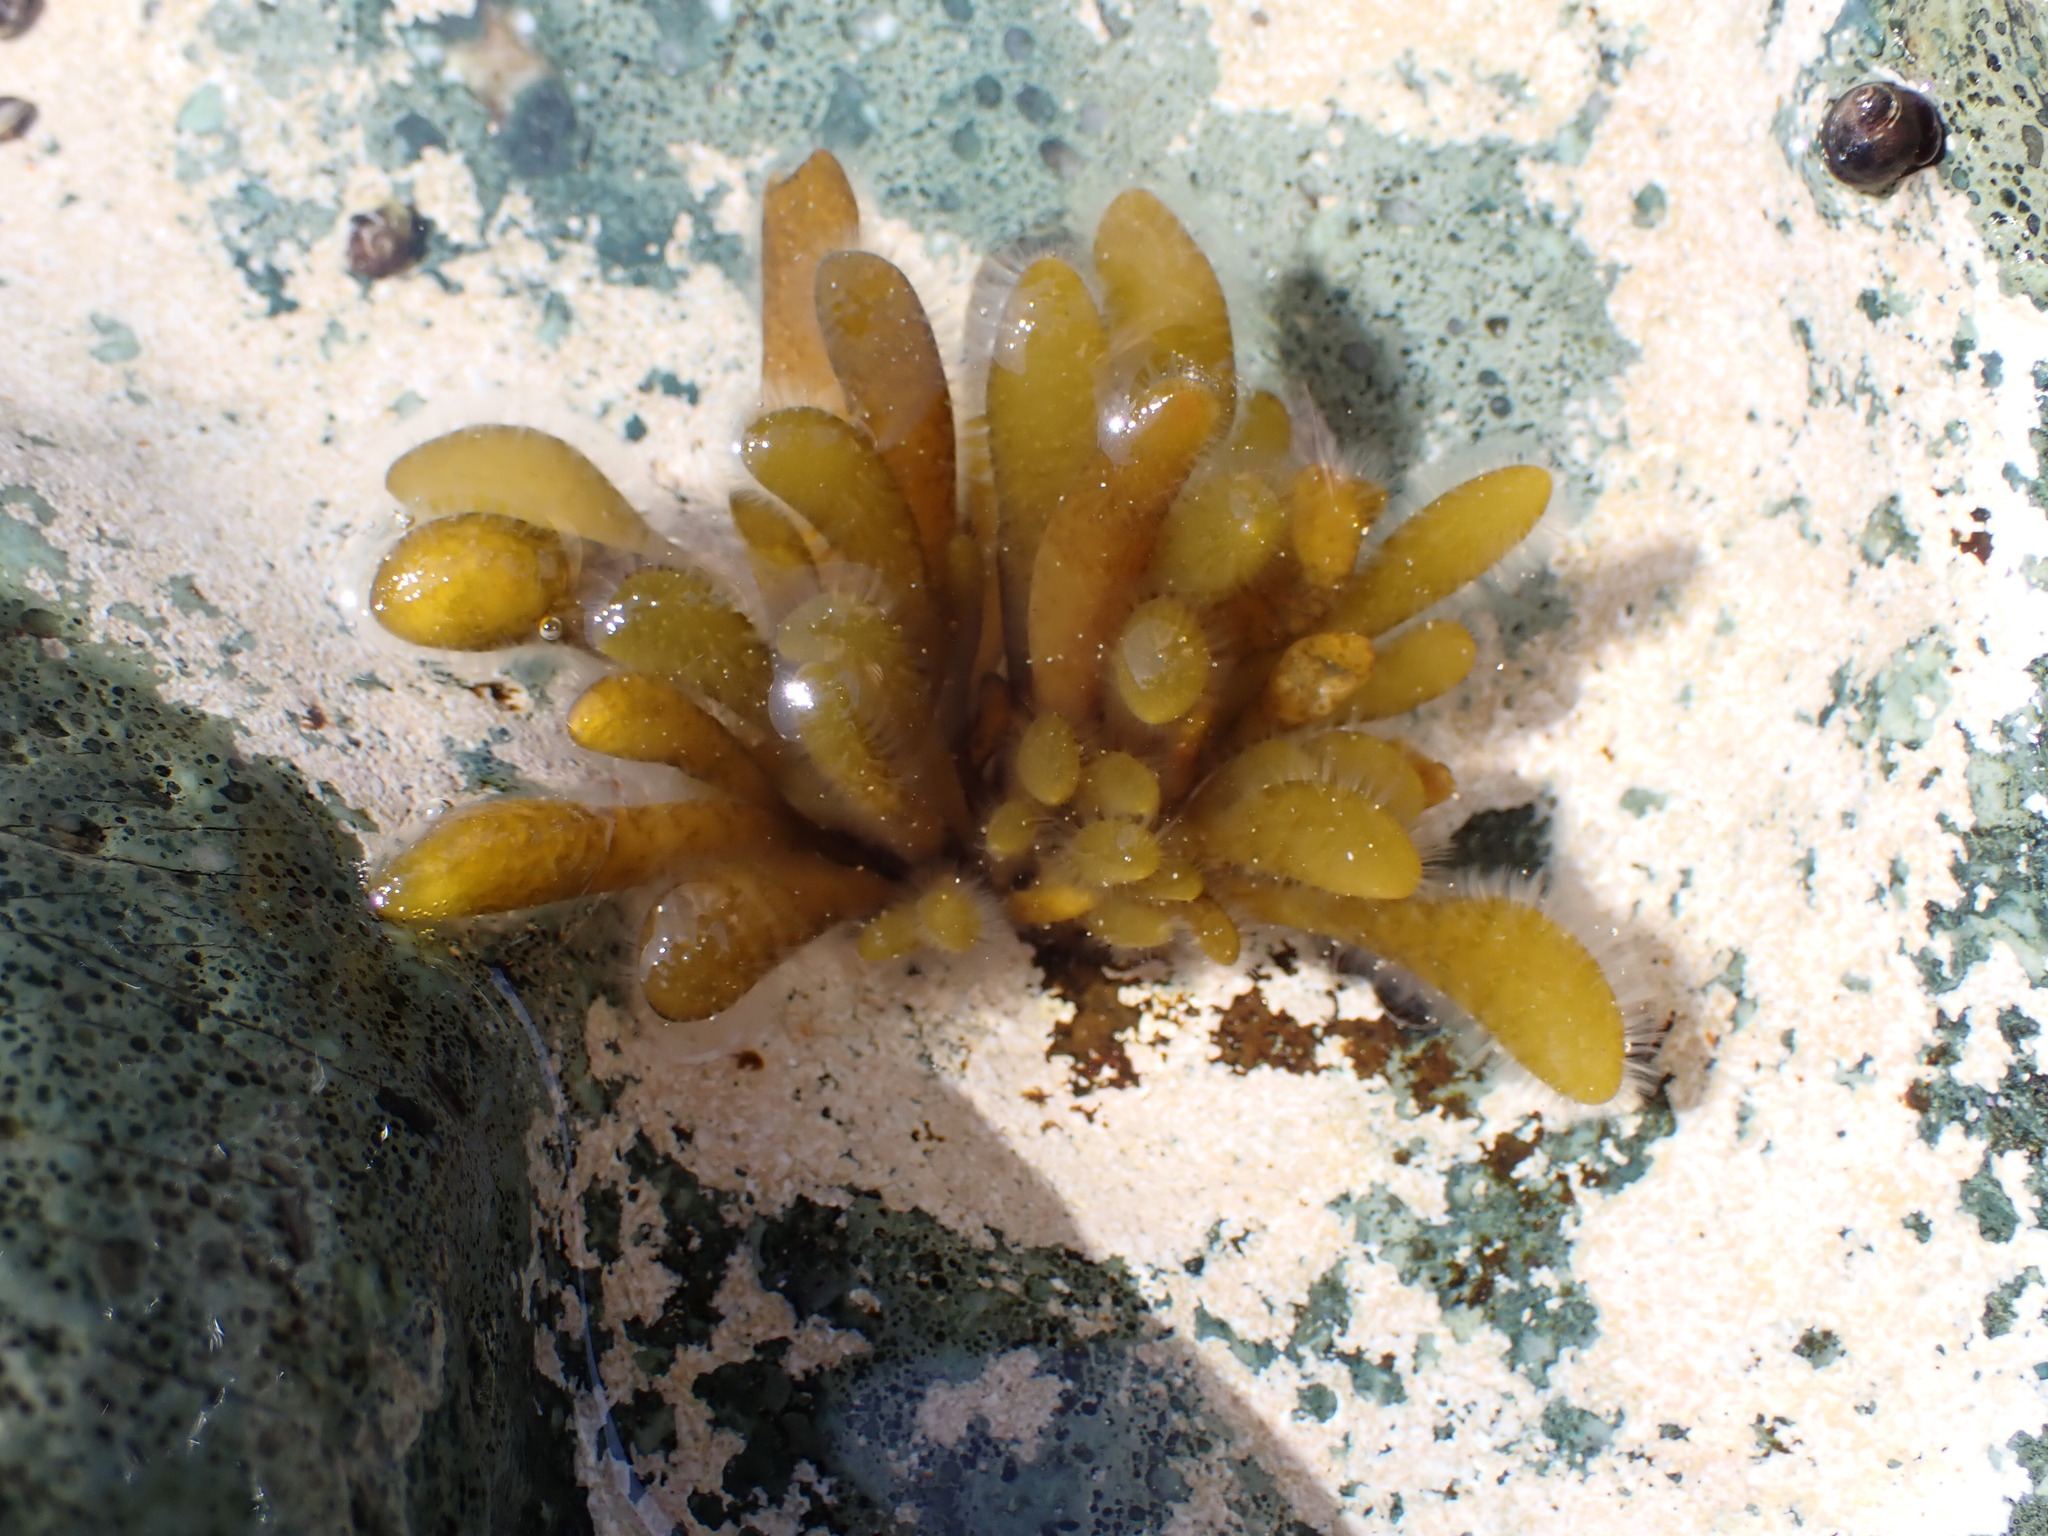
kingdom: Chromista
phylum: Ochrophyta
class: Phaeophyceae
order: Ectocarpales
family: Adenocystaceae
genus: Adenocystis
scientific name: Adenocystis utricularis
